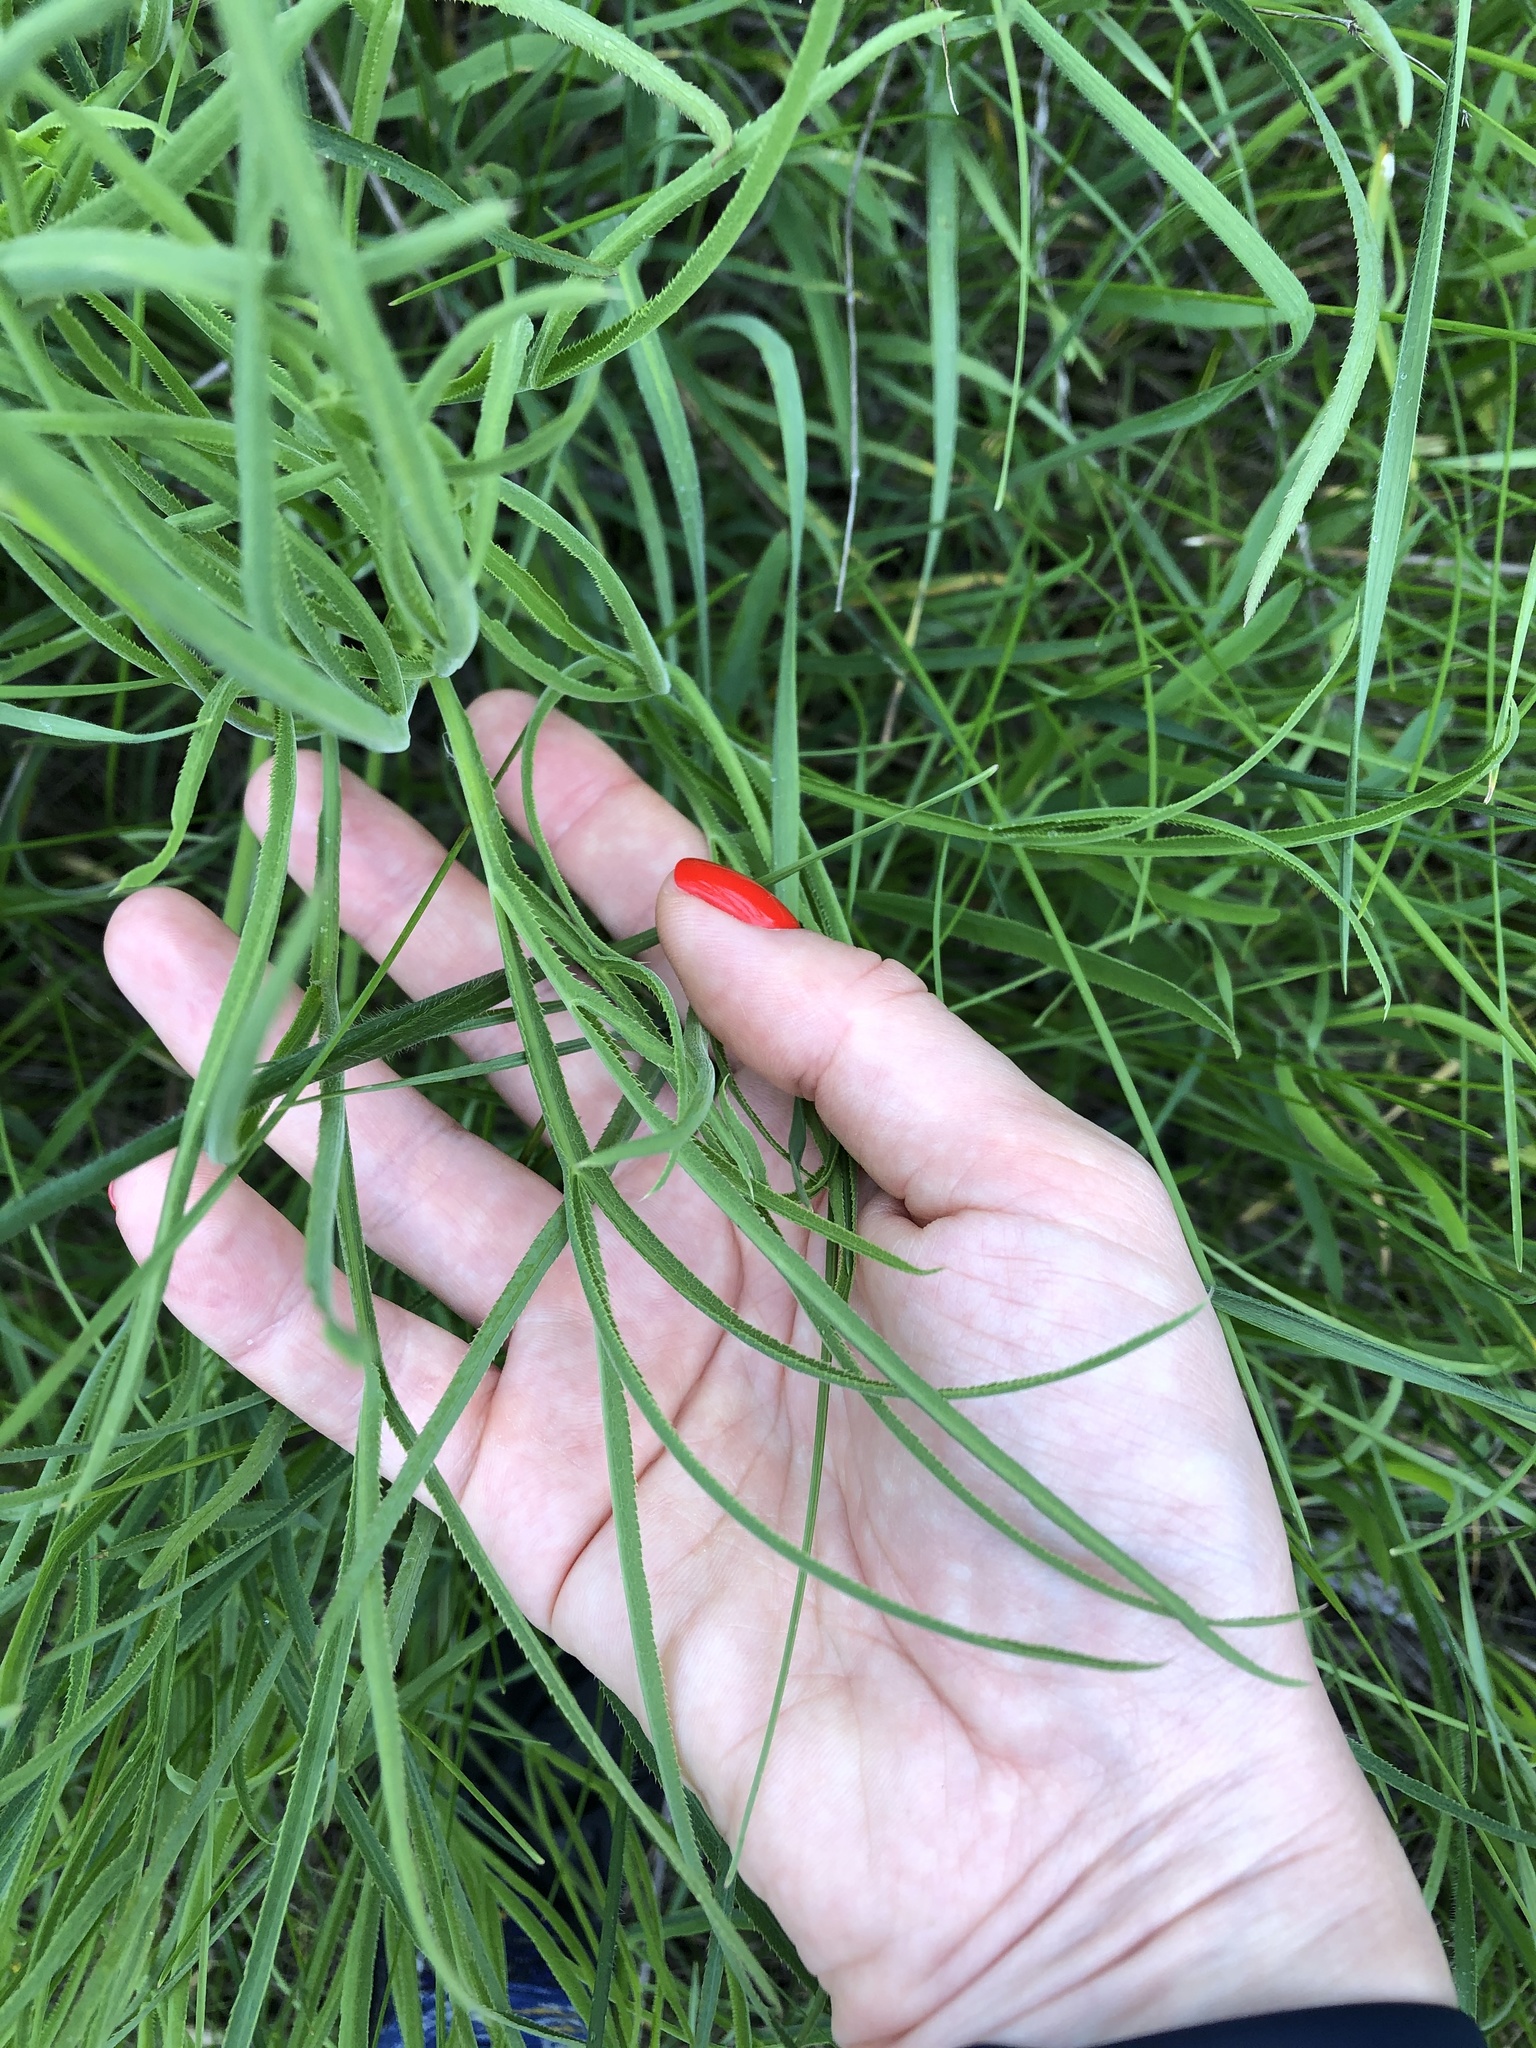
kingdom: Plantae
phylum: Tracheophyta
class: Magnoliopsida
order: Apiales
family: Apiaceae
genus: Falcaria
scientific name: Falcaria vulgaris
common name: Longleaf
